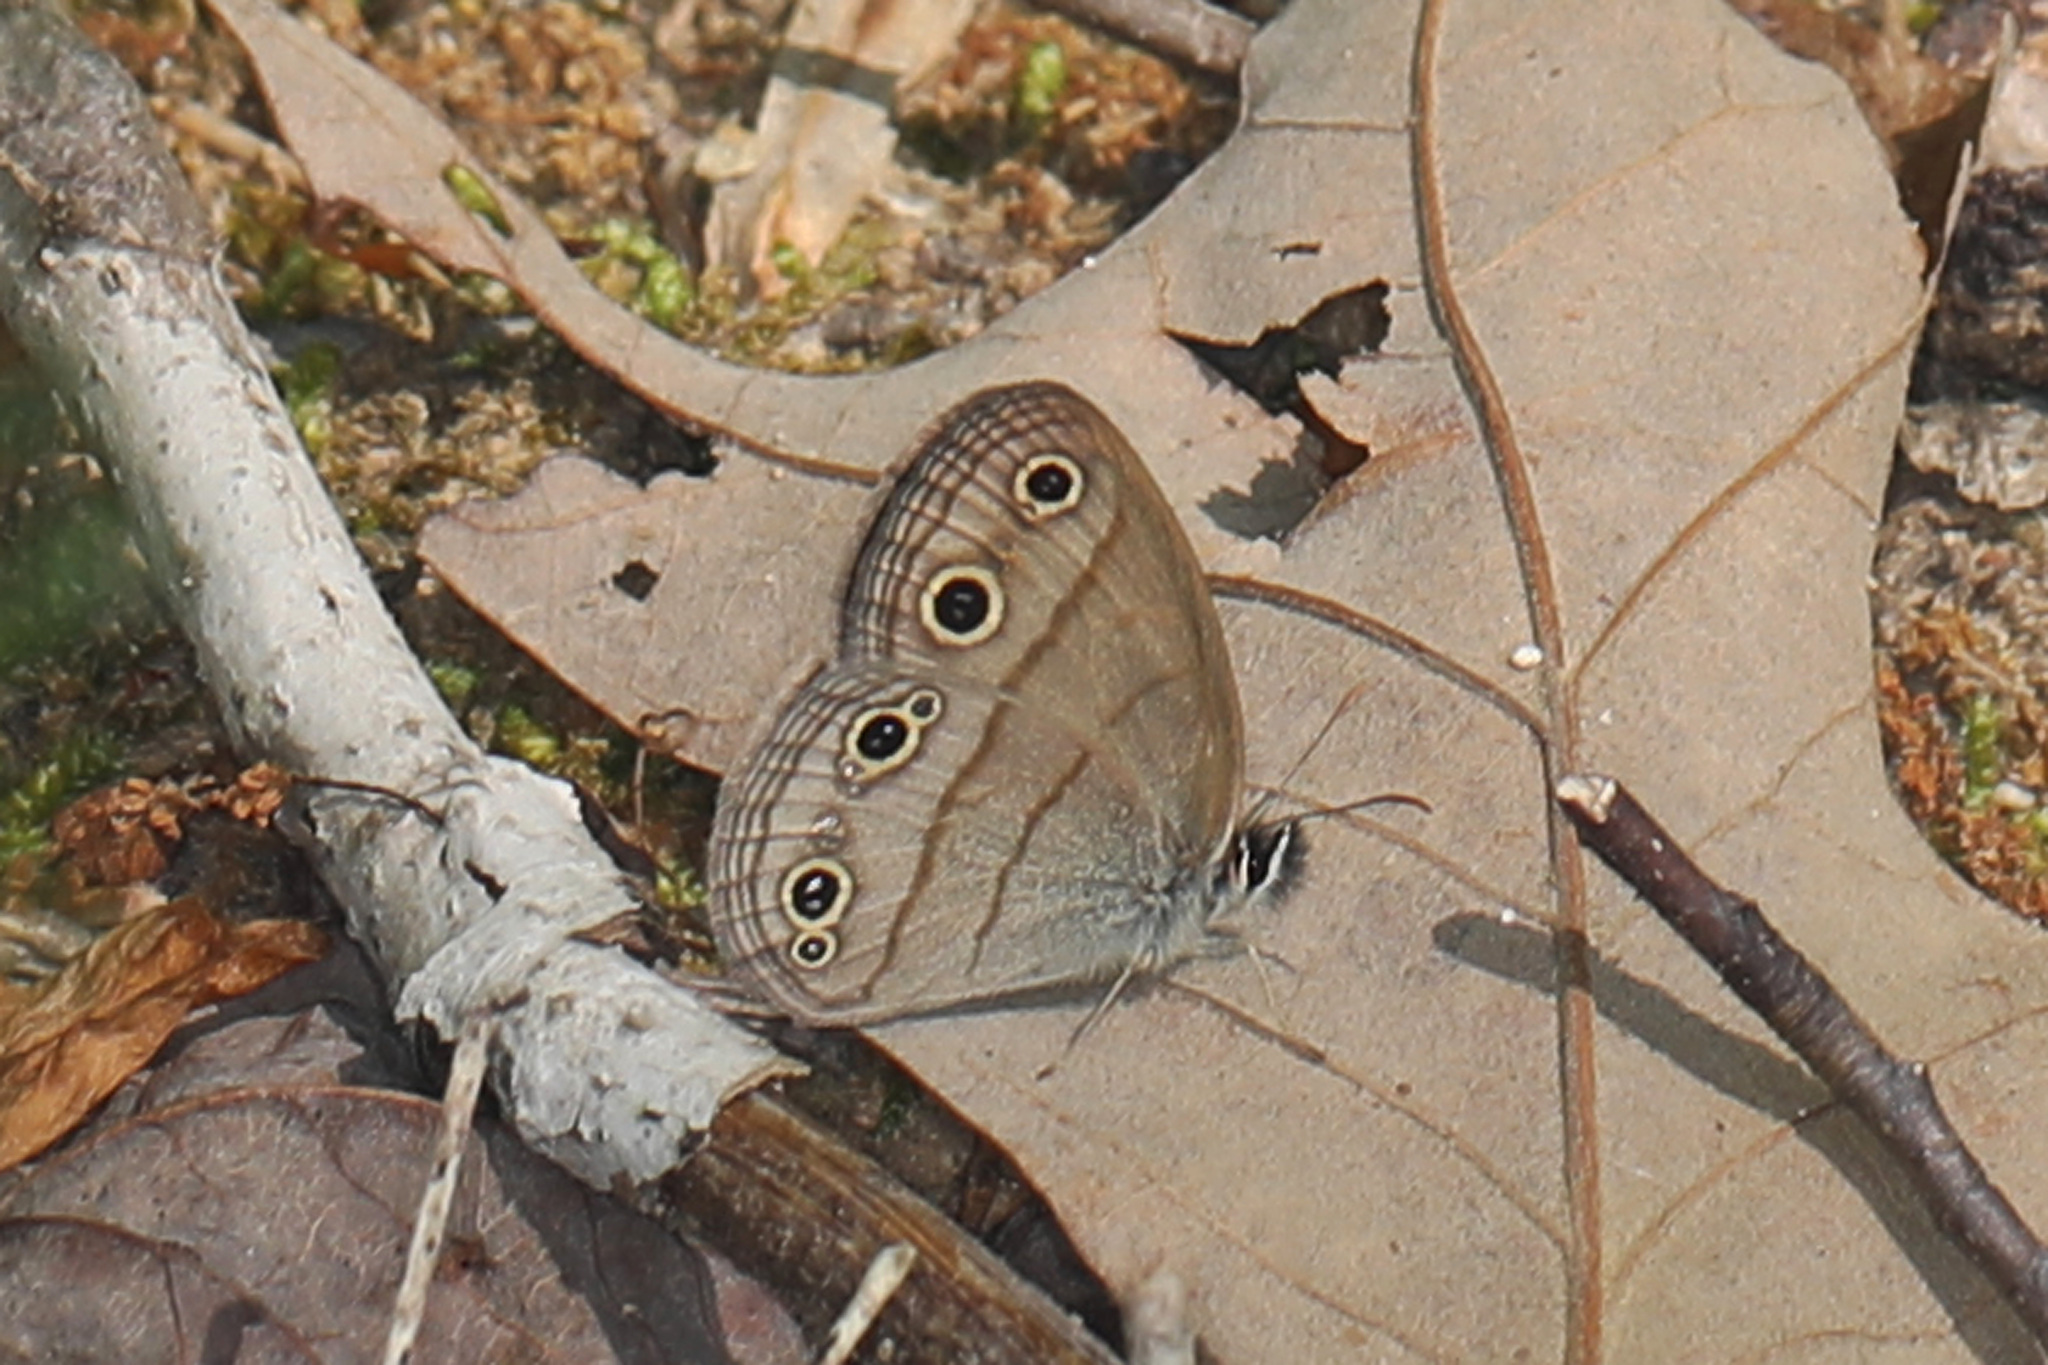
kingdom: Animalia
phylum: Arthropoda
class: Insecta
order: Lepidoptera
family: Nymphalidae
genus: Euptychia
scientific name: Euptychia cymela
